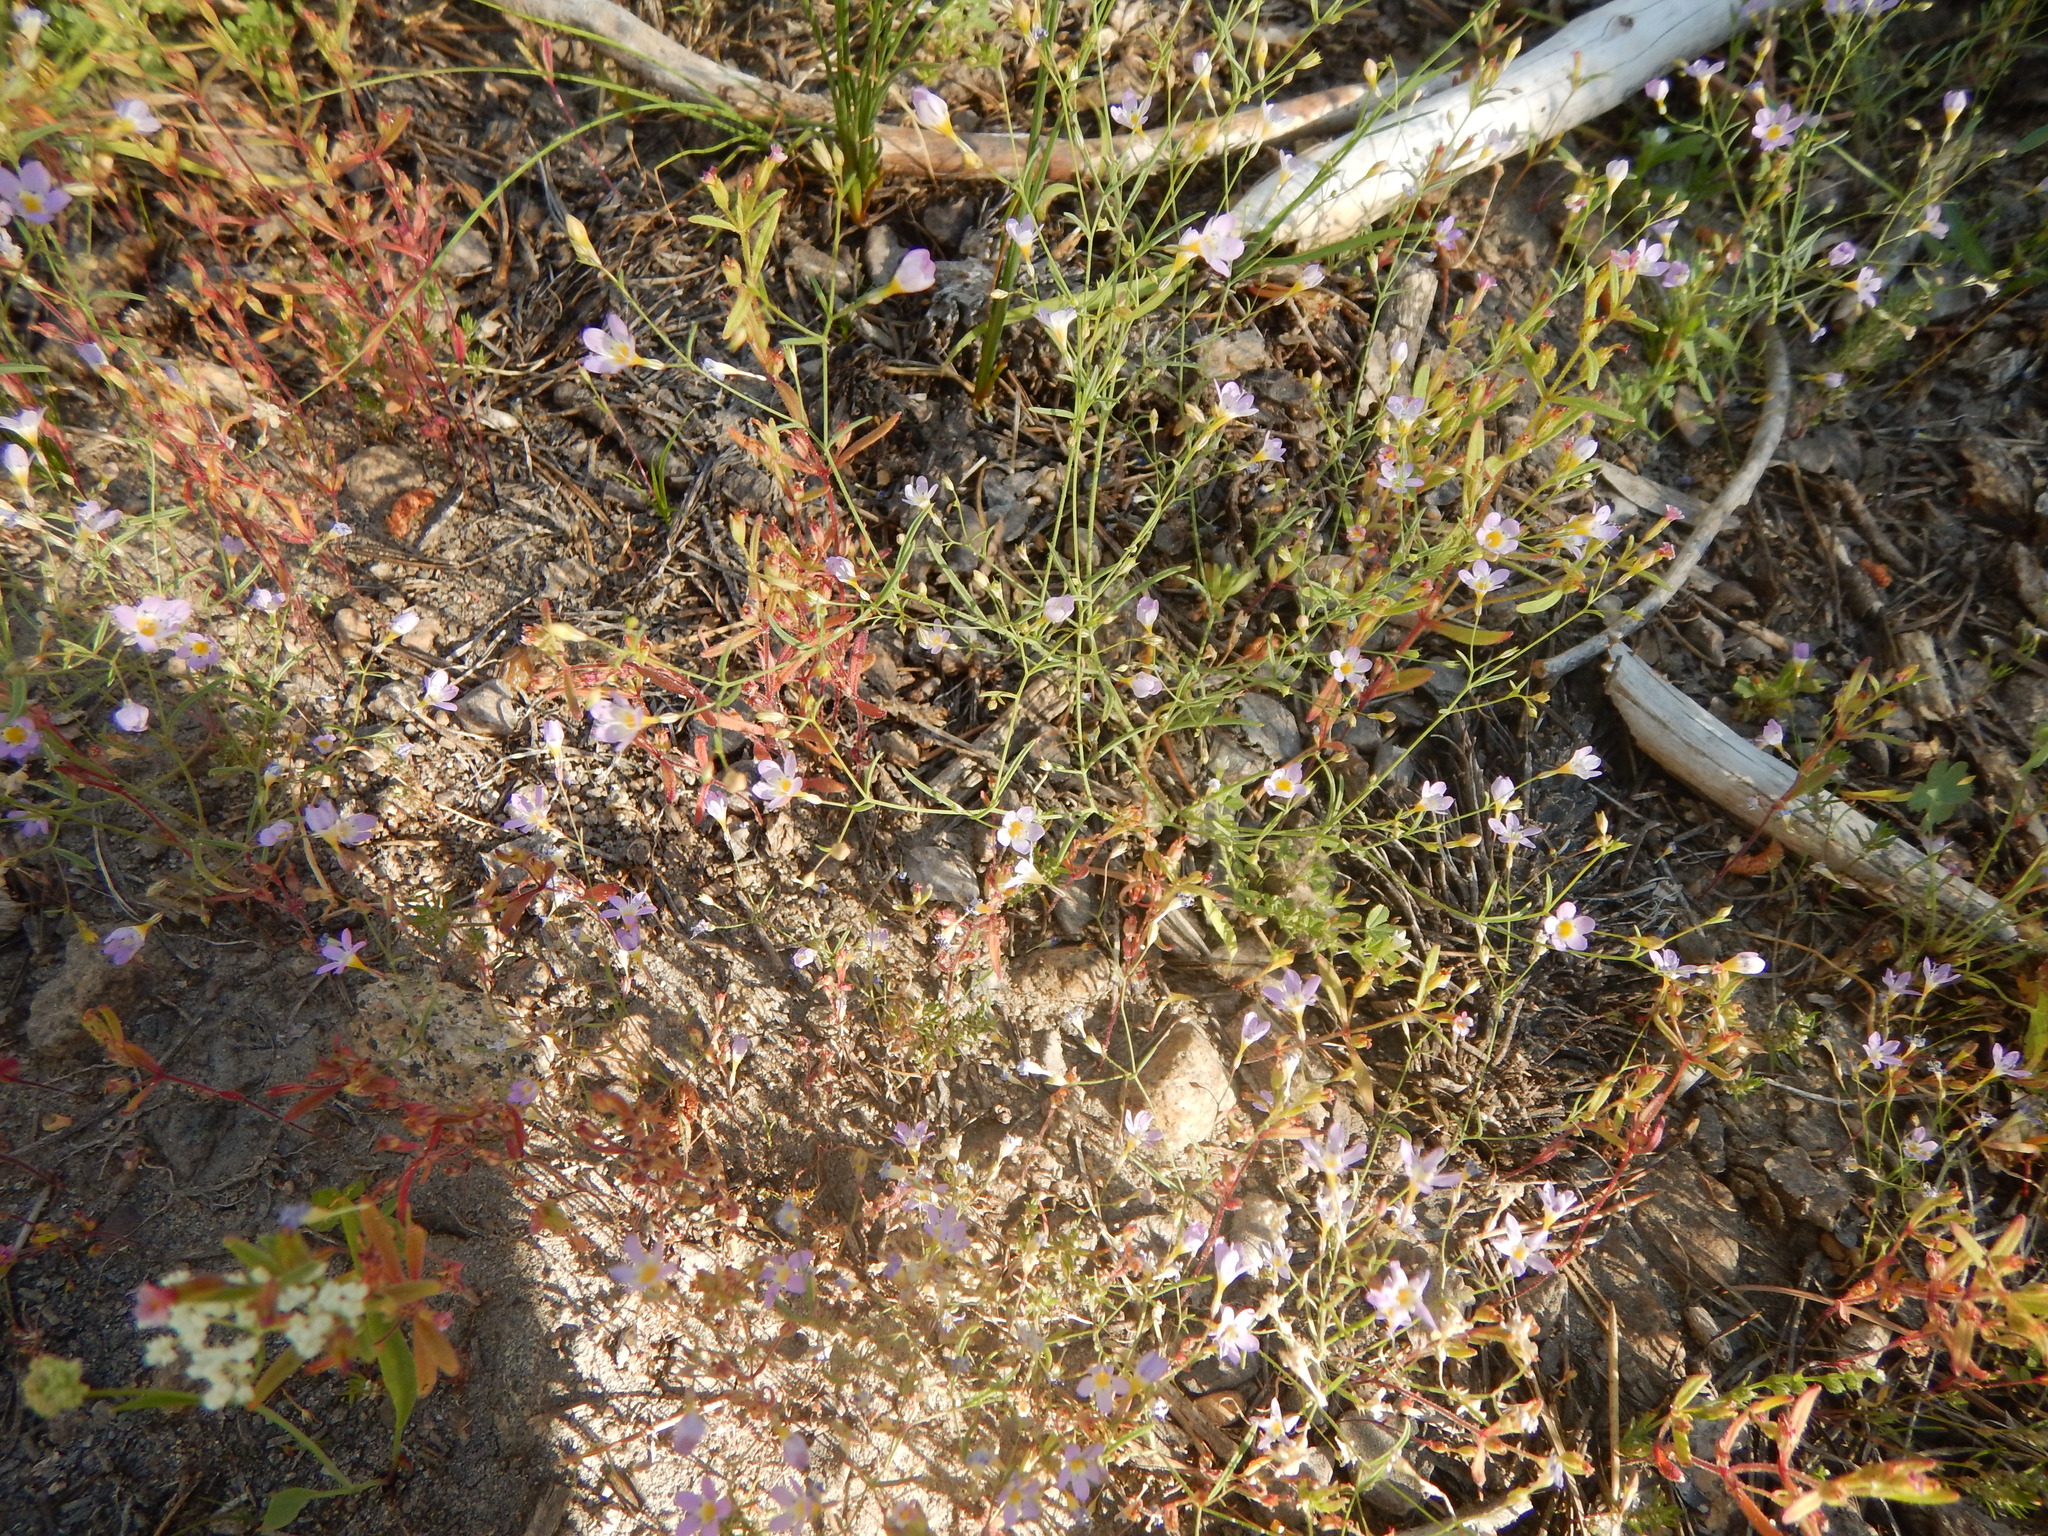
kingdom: Plantae
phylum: Tracheophyta
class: Magnoliopsida
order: Ericales
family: Polemoniaceae
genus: Navarretia
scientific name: Navarretia leptalea
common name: Bridges' pincushionplant
